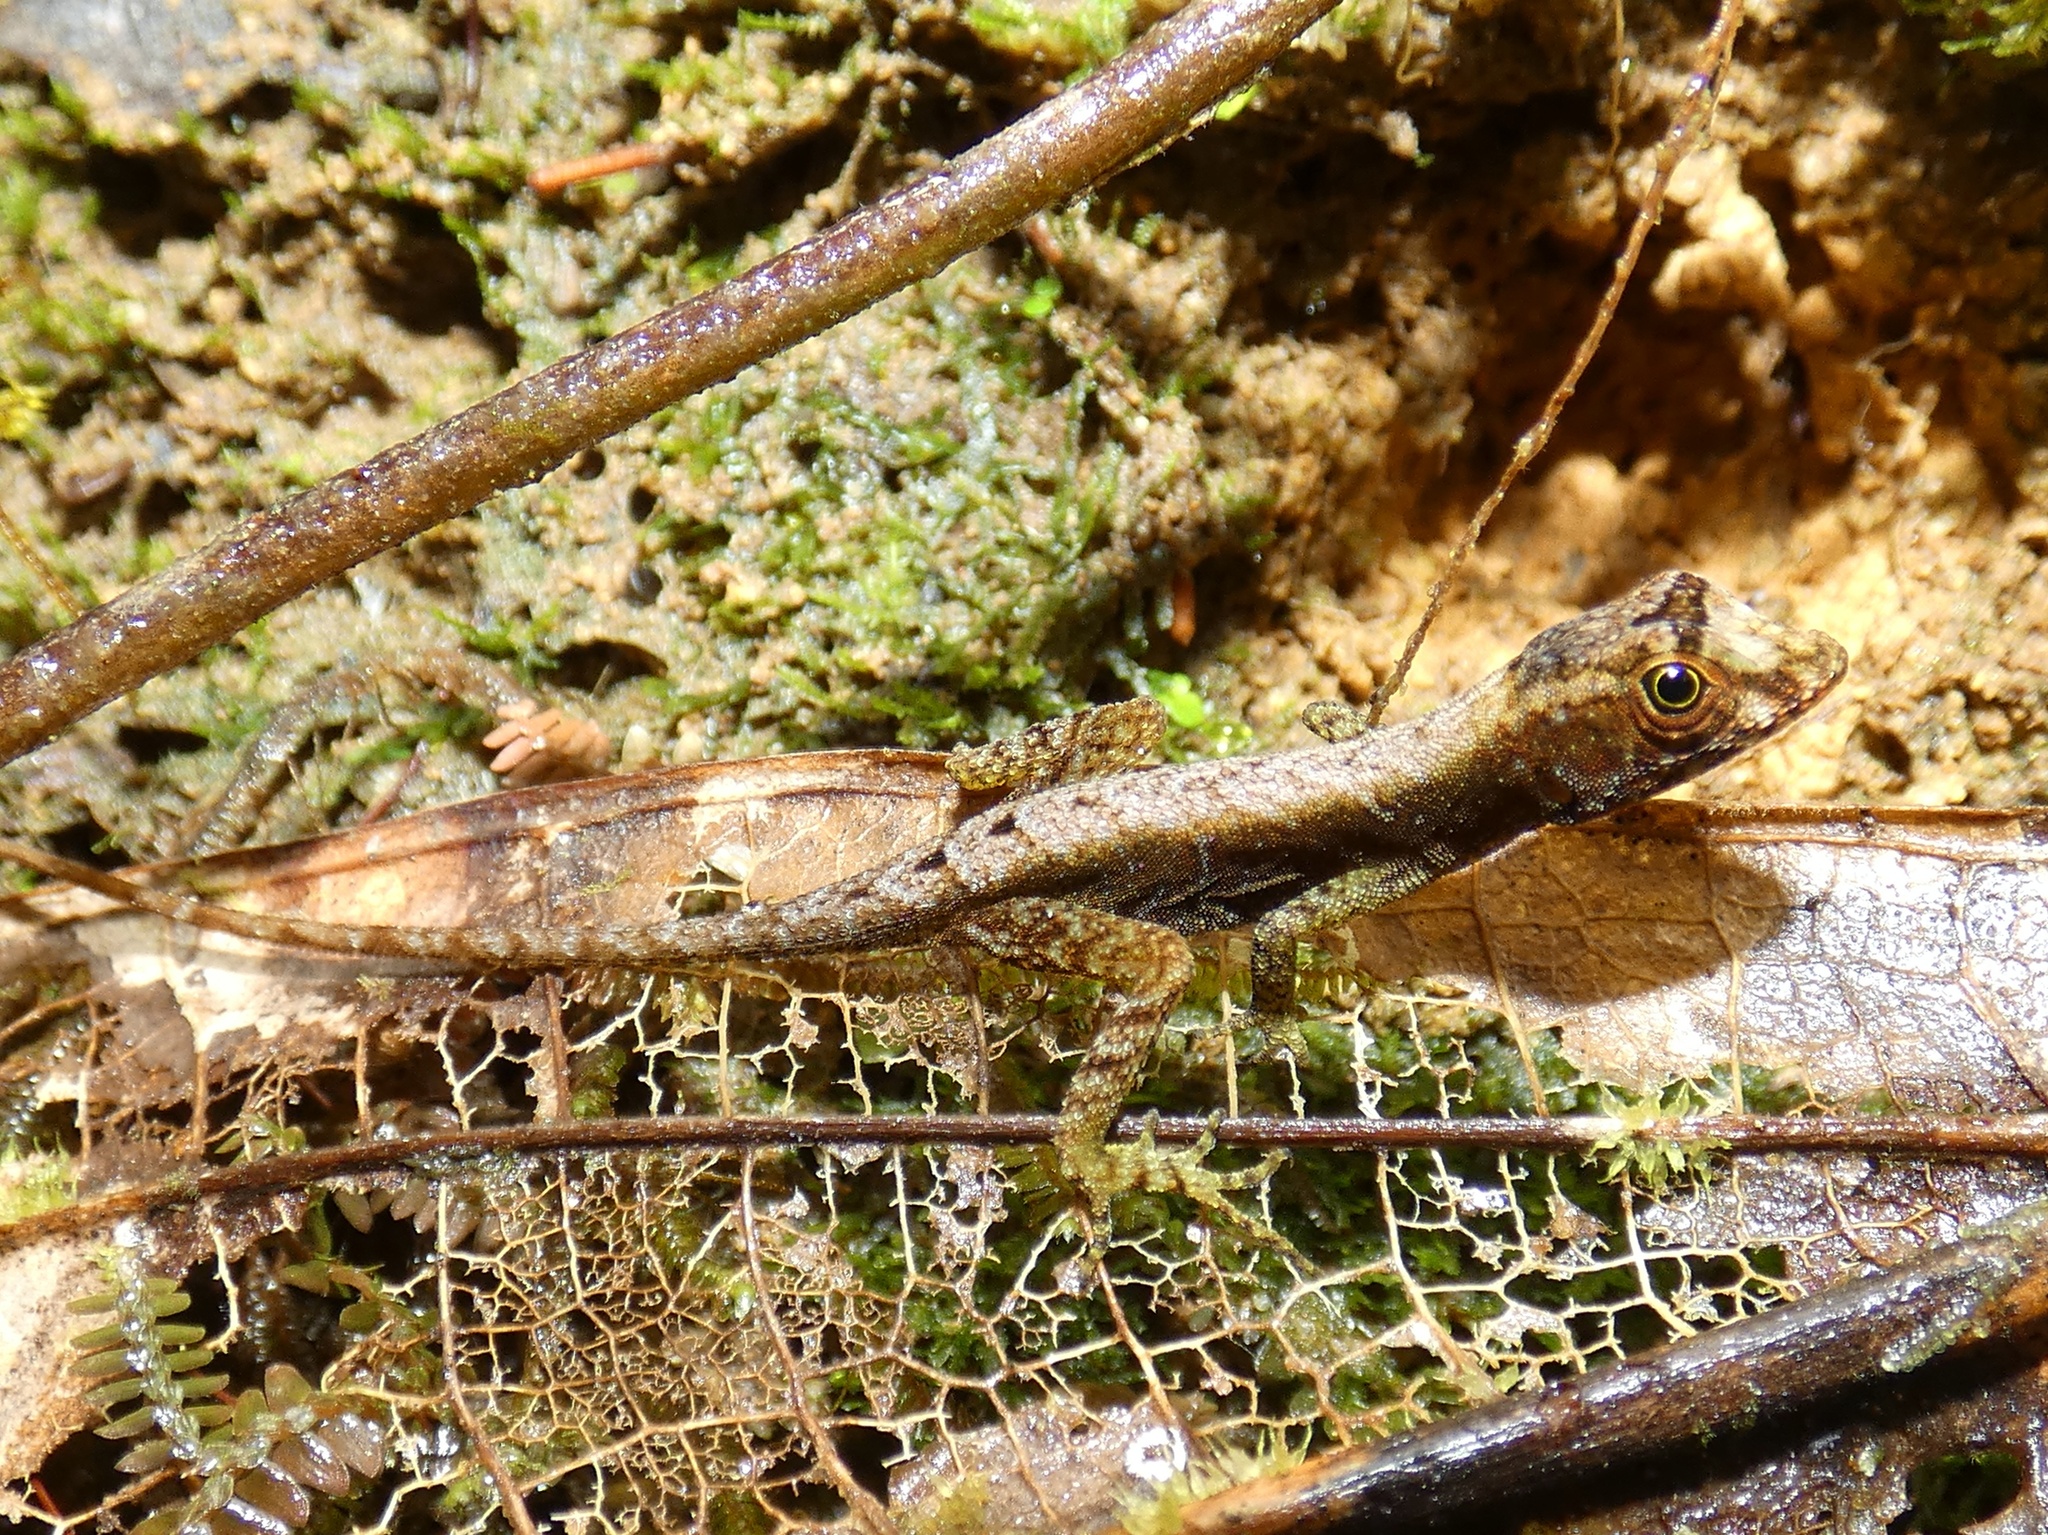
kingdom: Animalia
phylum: Chordata
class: Squamata
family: Dactyloidae
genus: Anolis
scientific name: Anolis capito
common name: Bighead anole
